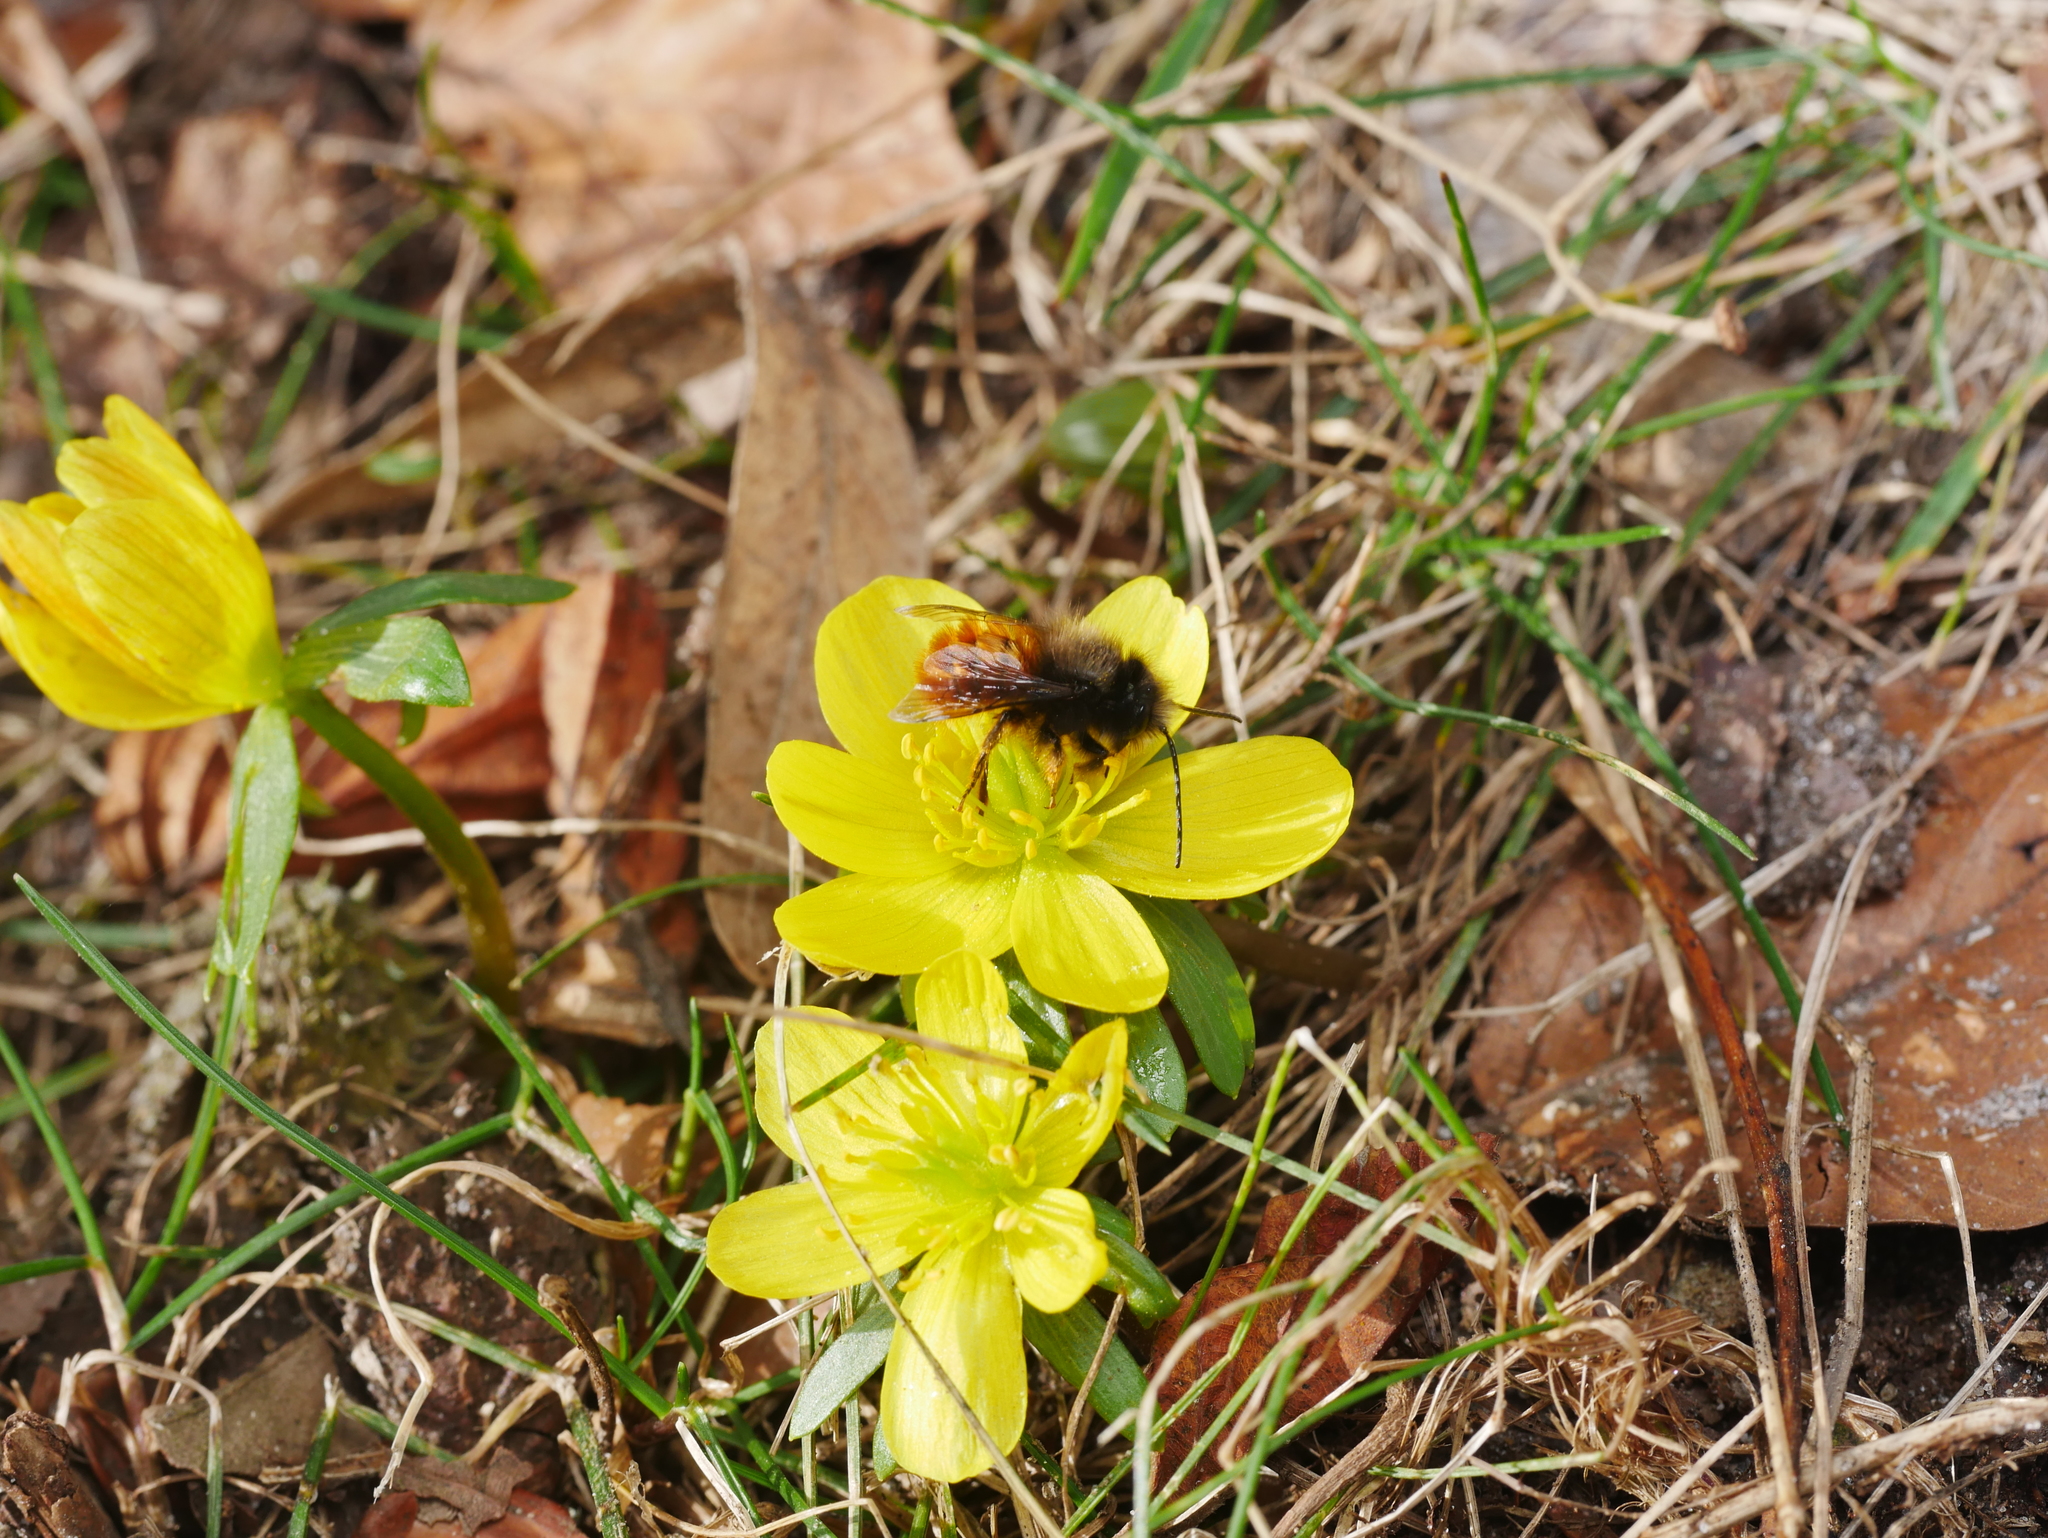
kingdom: Plantae
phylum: Tracheophyta
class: Magnoliopsida
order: Ranunculales
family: Ranunculaceae
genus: Eranthis
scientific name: Eranthis hyemalis
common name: Winter aconite
